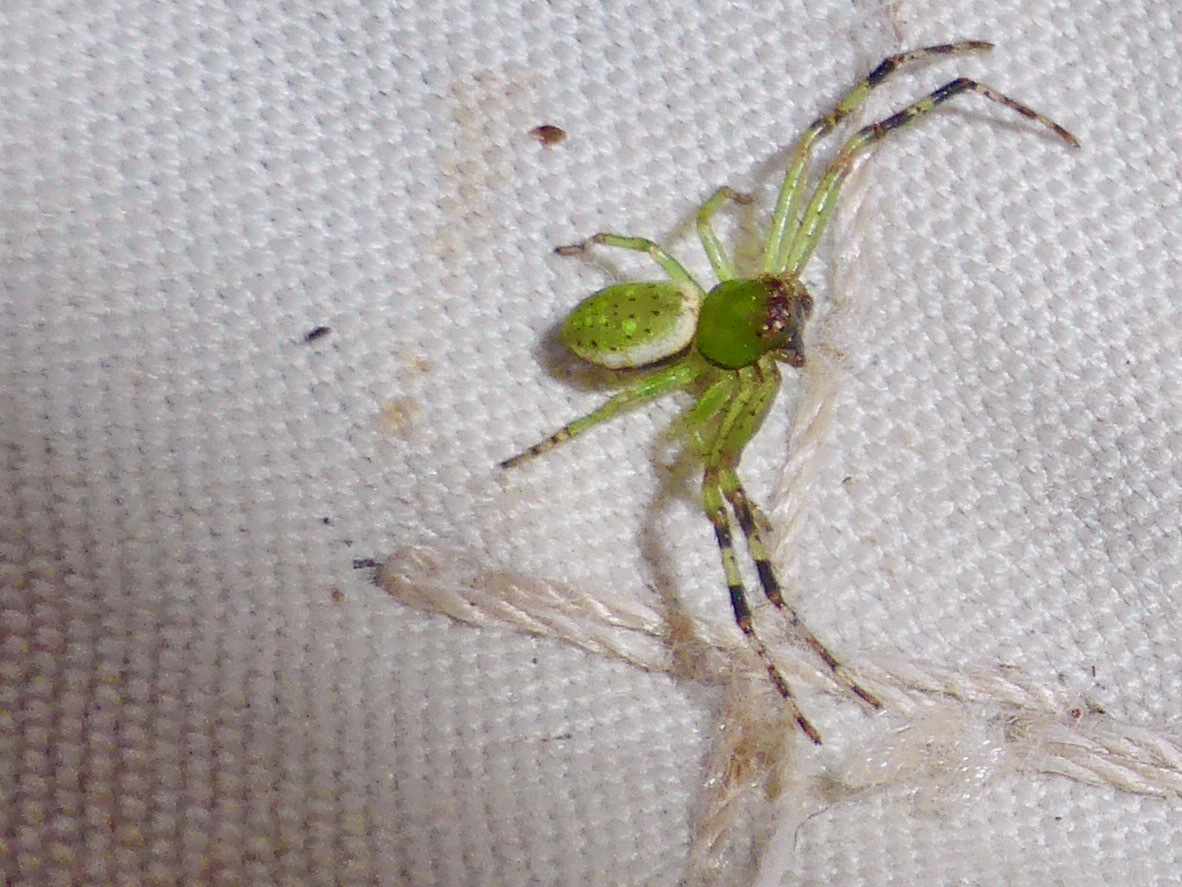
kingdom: Animalia
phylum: Arthropoda
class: Arachnida
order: Araneae
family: Thomisidae
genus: Diaea
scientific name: Diaea ambara
